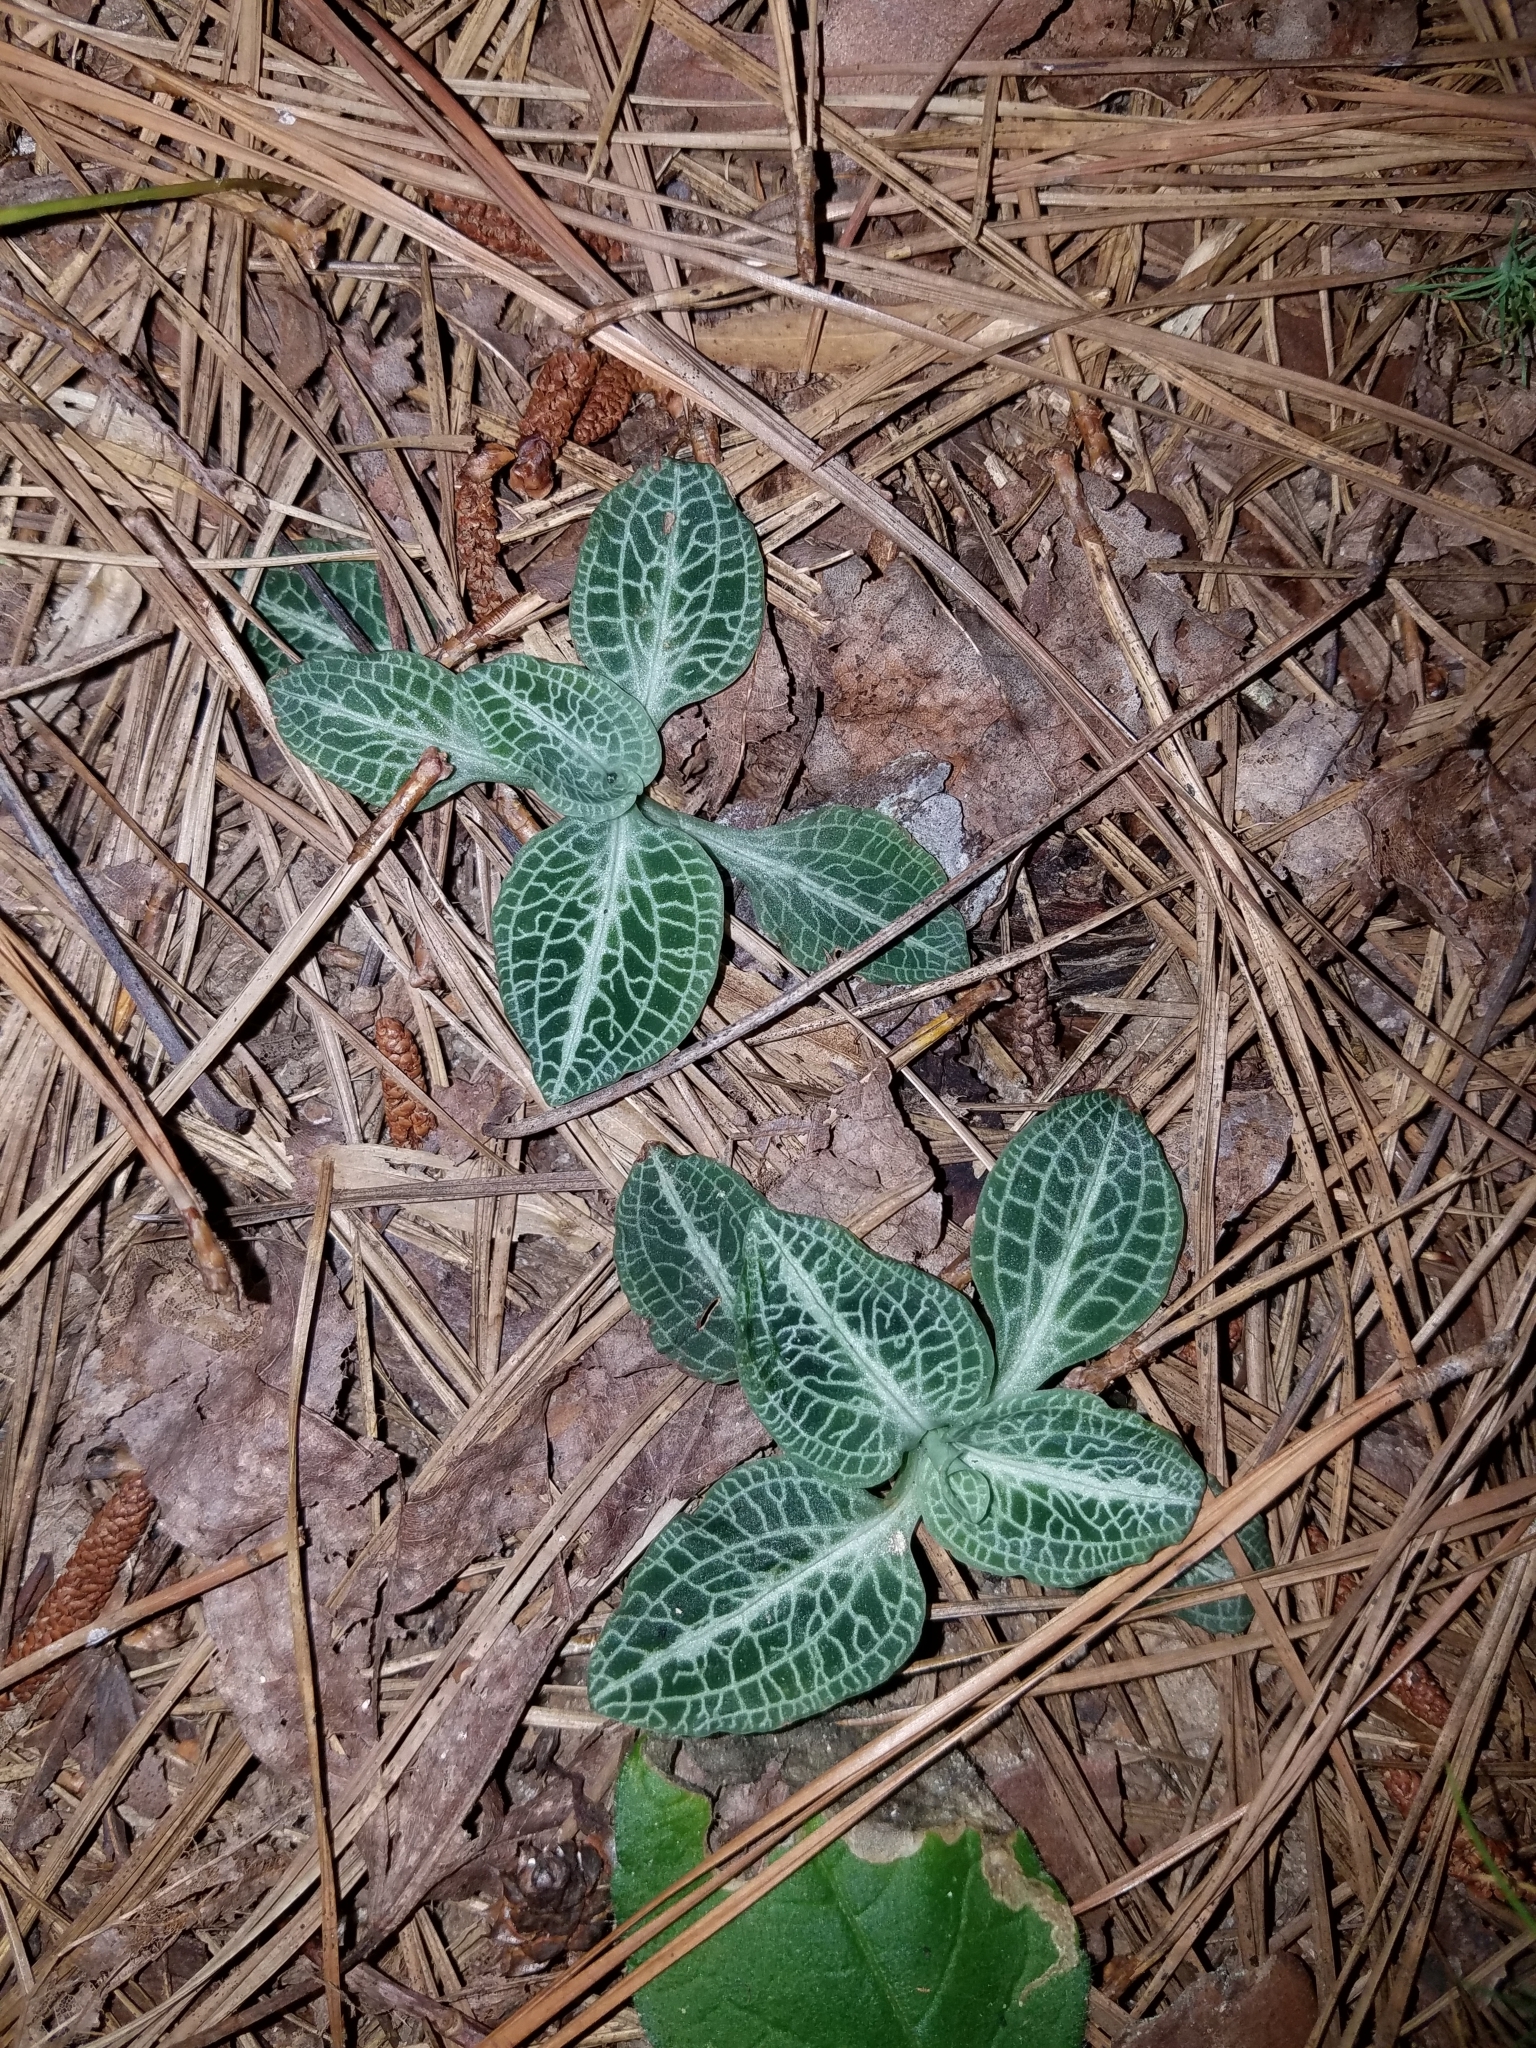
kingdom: Plantae
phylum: Tracheophyta
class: Liliopsida
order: Asparagales
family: Orchidaceae
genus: Goodyera
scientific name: Goodyera pubescens
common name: Downy rattlesnake-plantain
